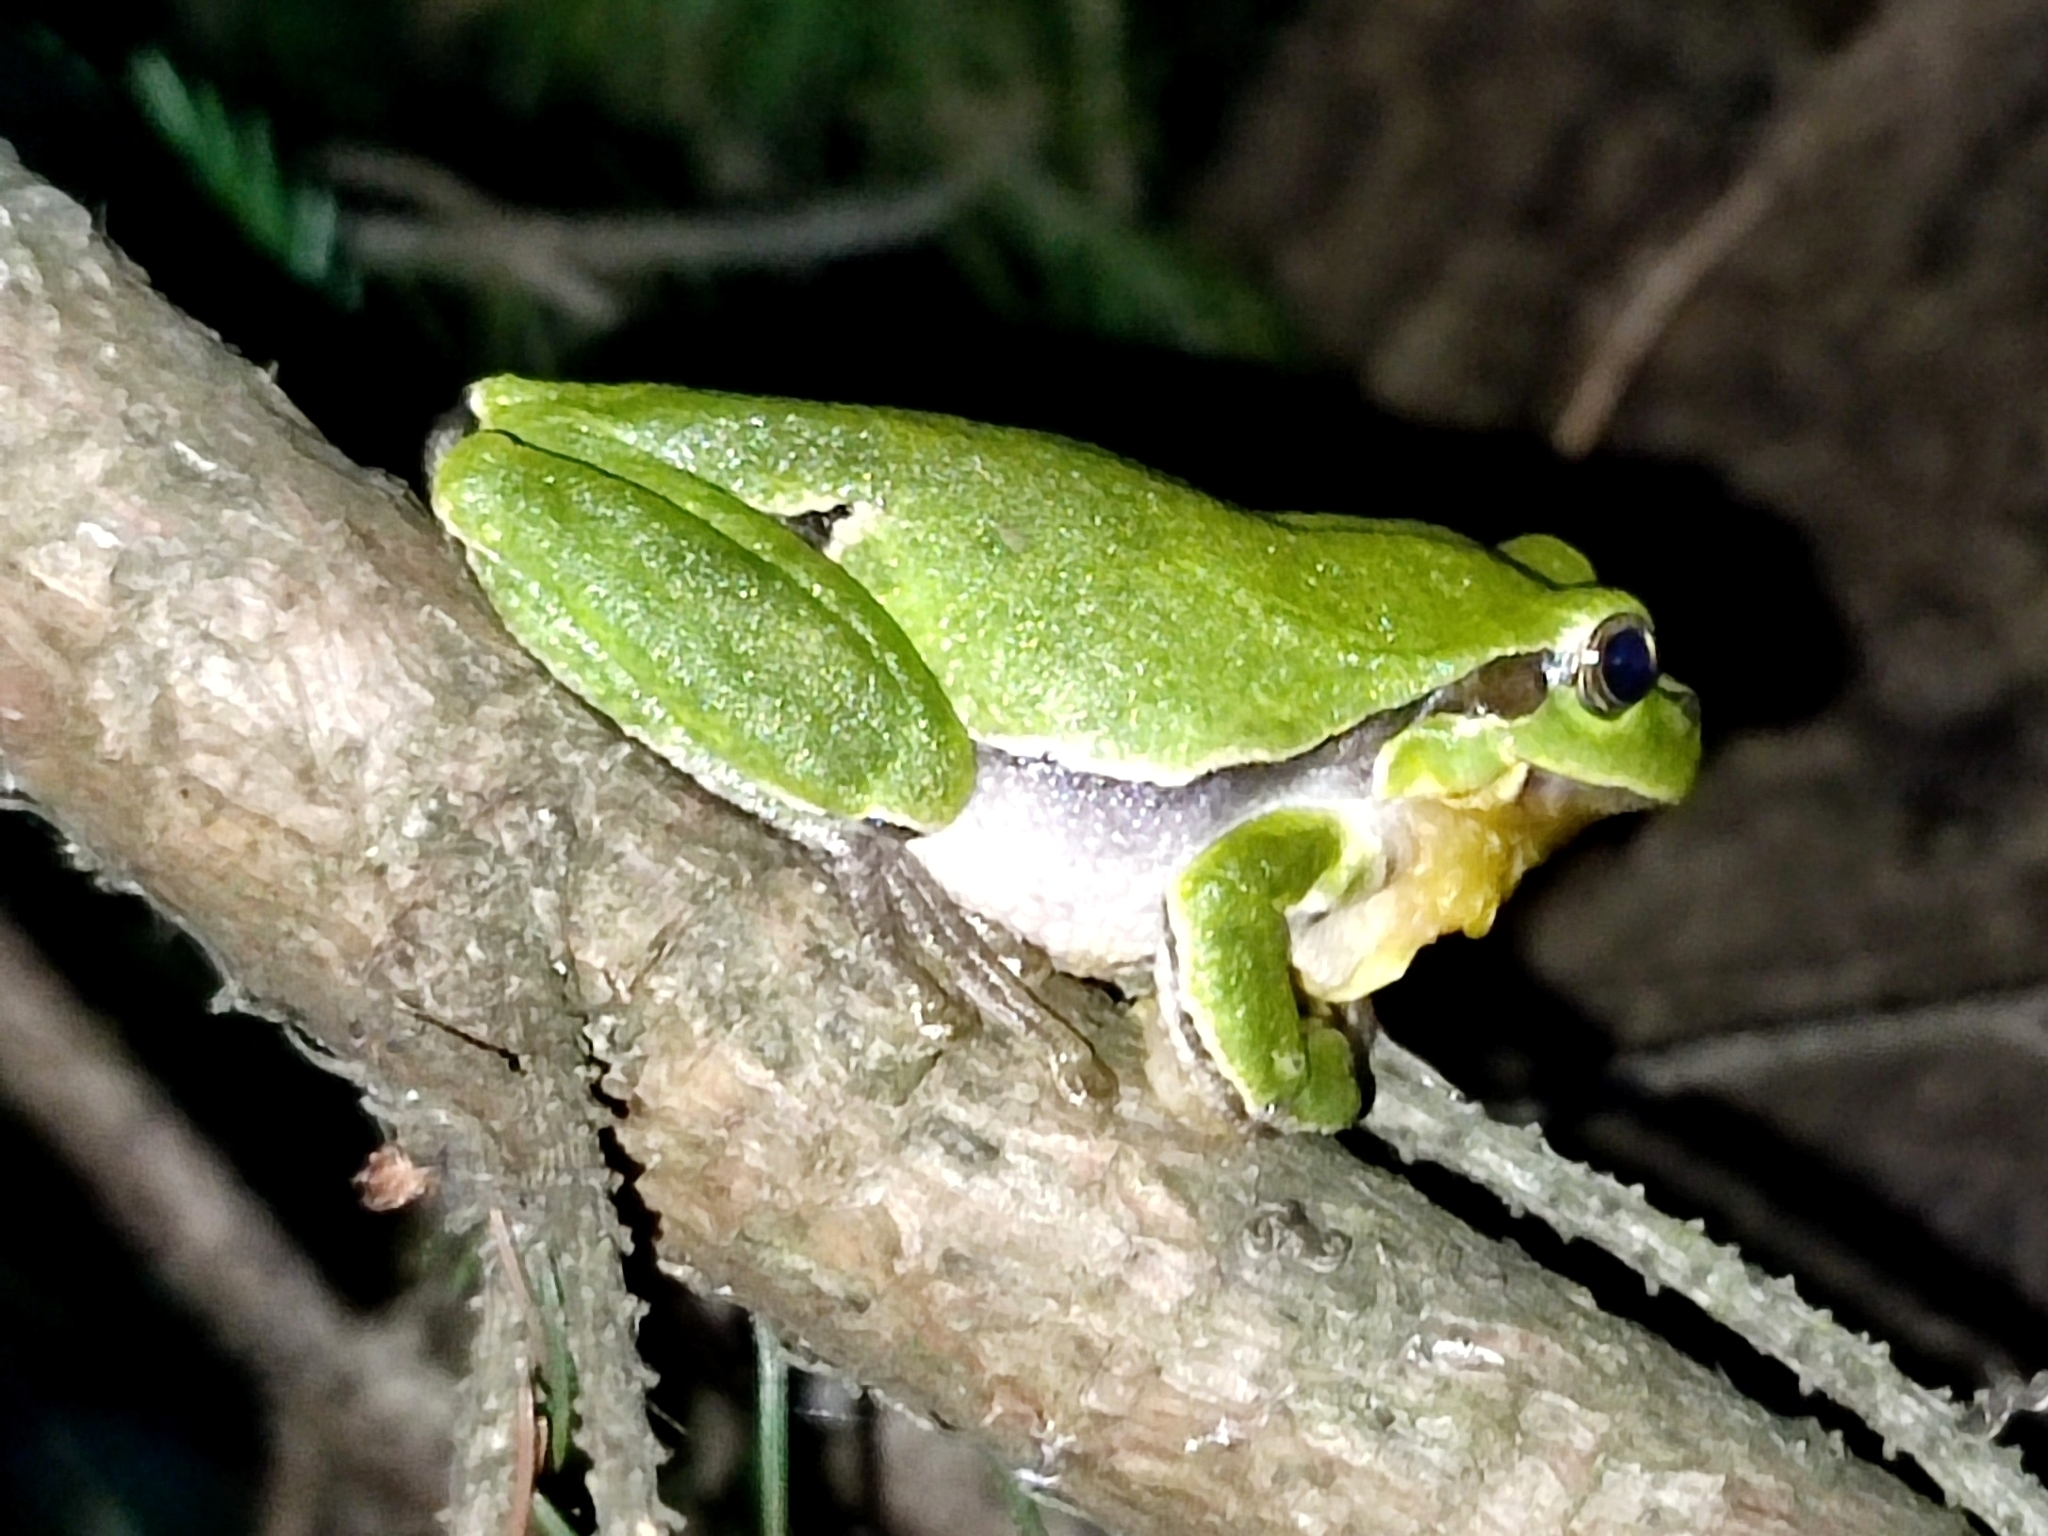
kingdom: Animalia
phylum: Chordata
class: Amphibia
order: Anura
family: Hylidae
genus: Hyla
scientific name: Hyla arborea
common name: Common tree frog
